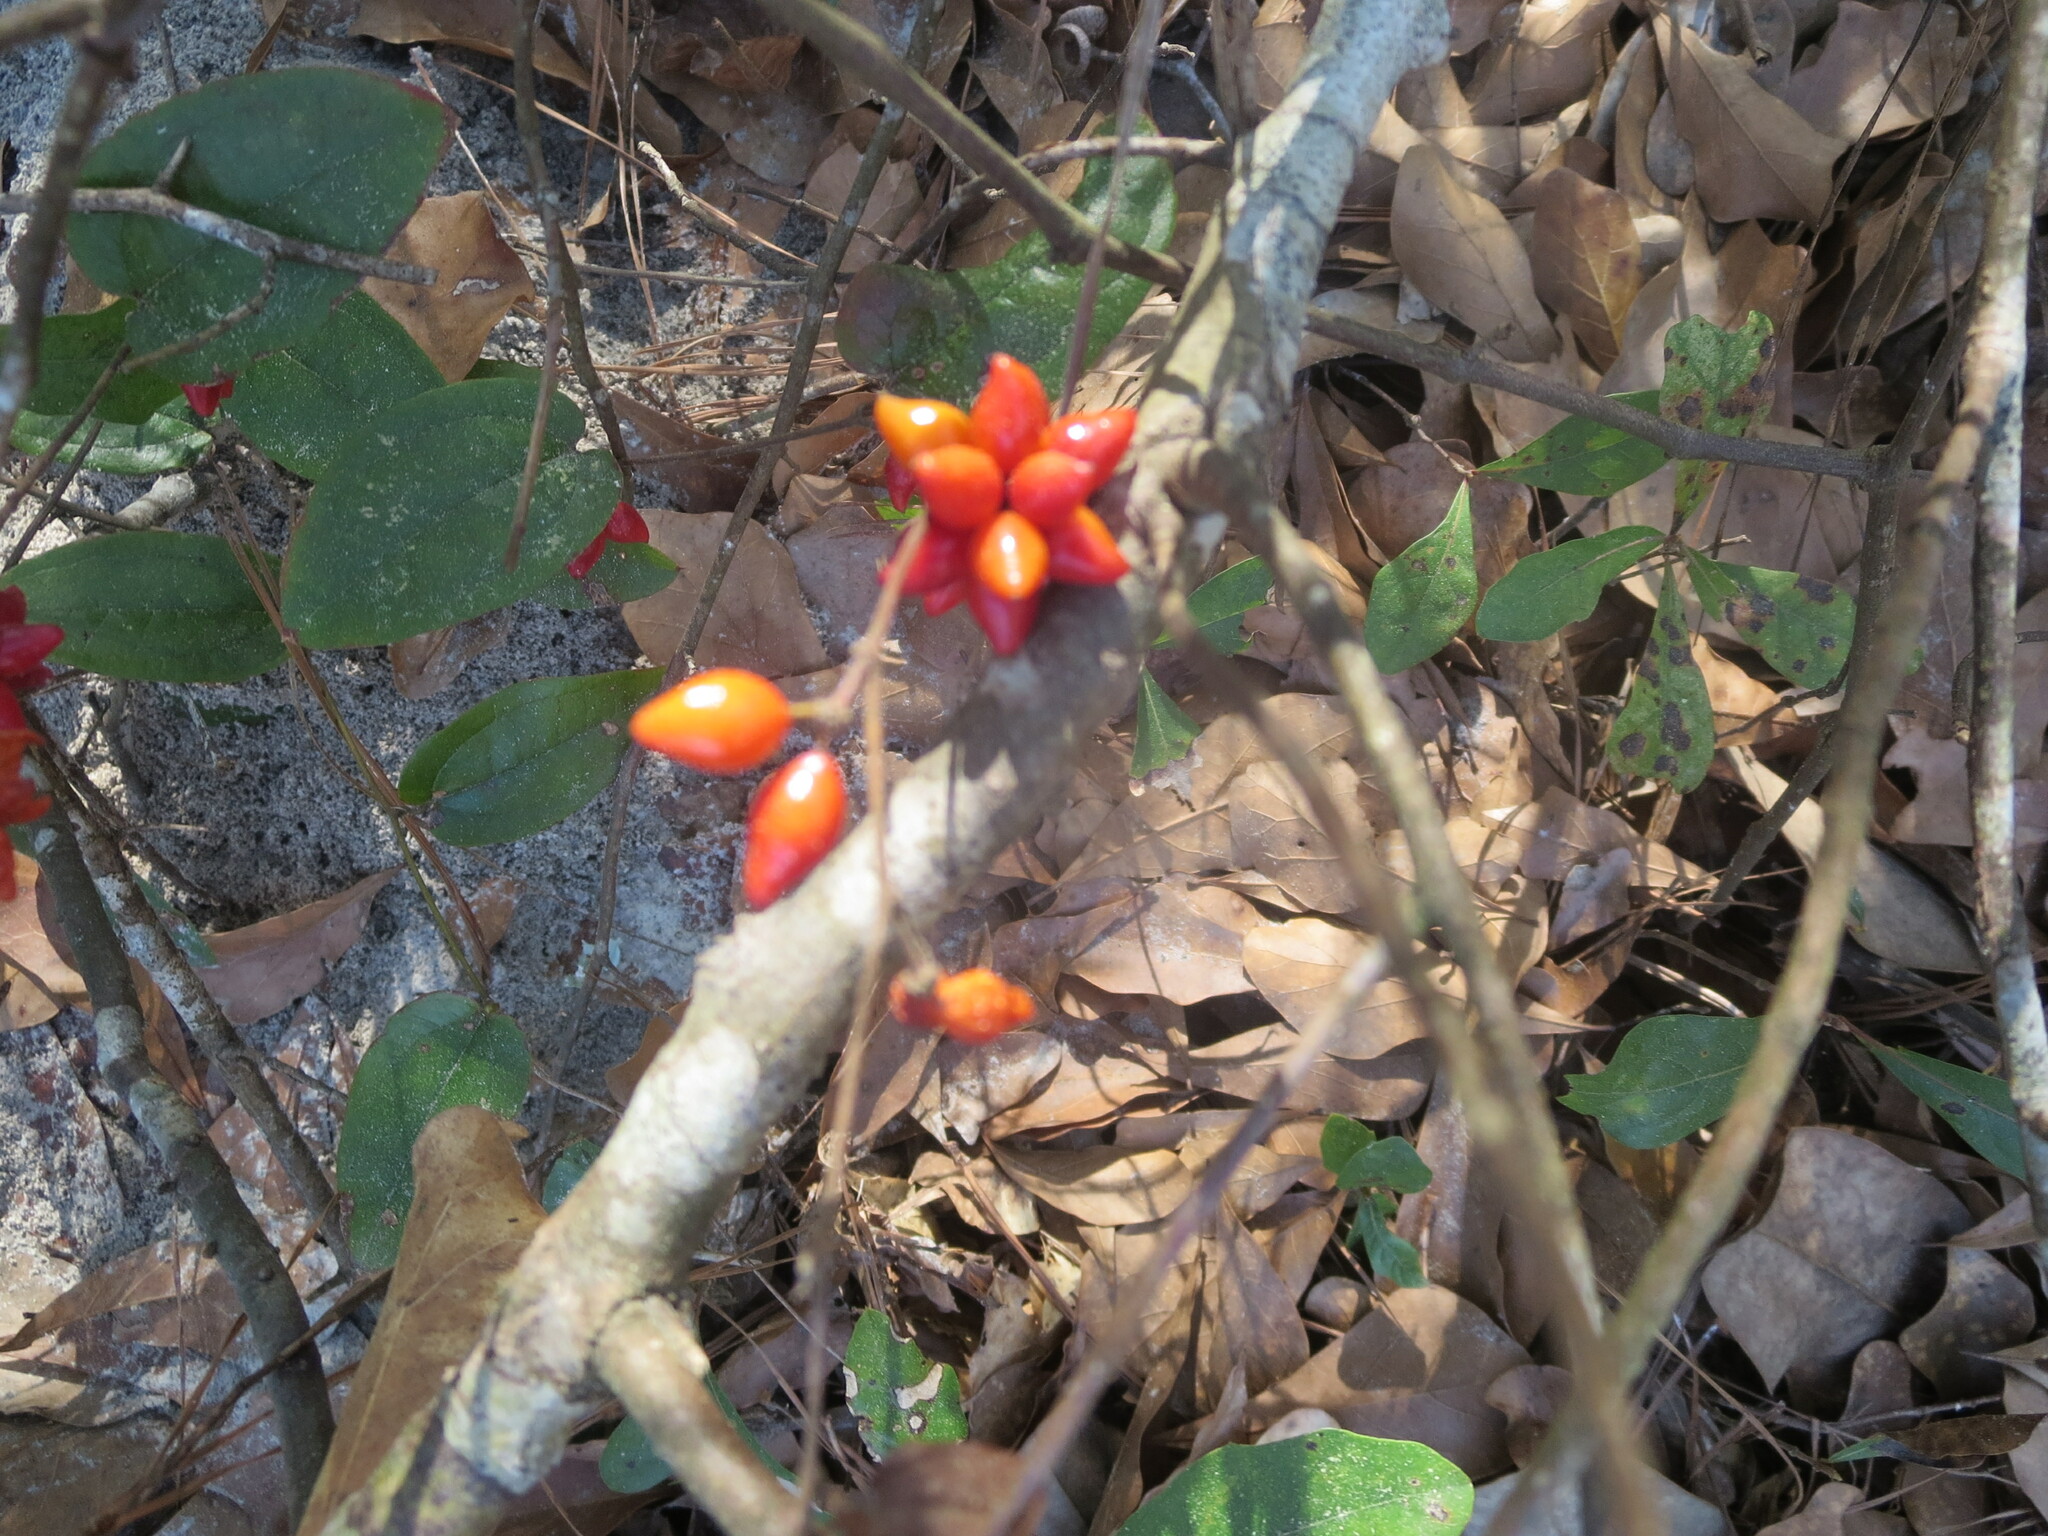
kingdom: Plantae
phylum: Tracheophyta
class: Liliopsida
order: Liliales
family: Smilacaceae
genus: Smilax
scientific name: Smilax pumila
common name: Sarsaparilla-vine
